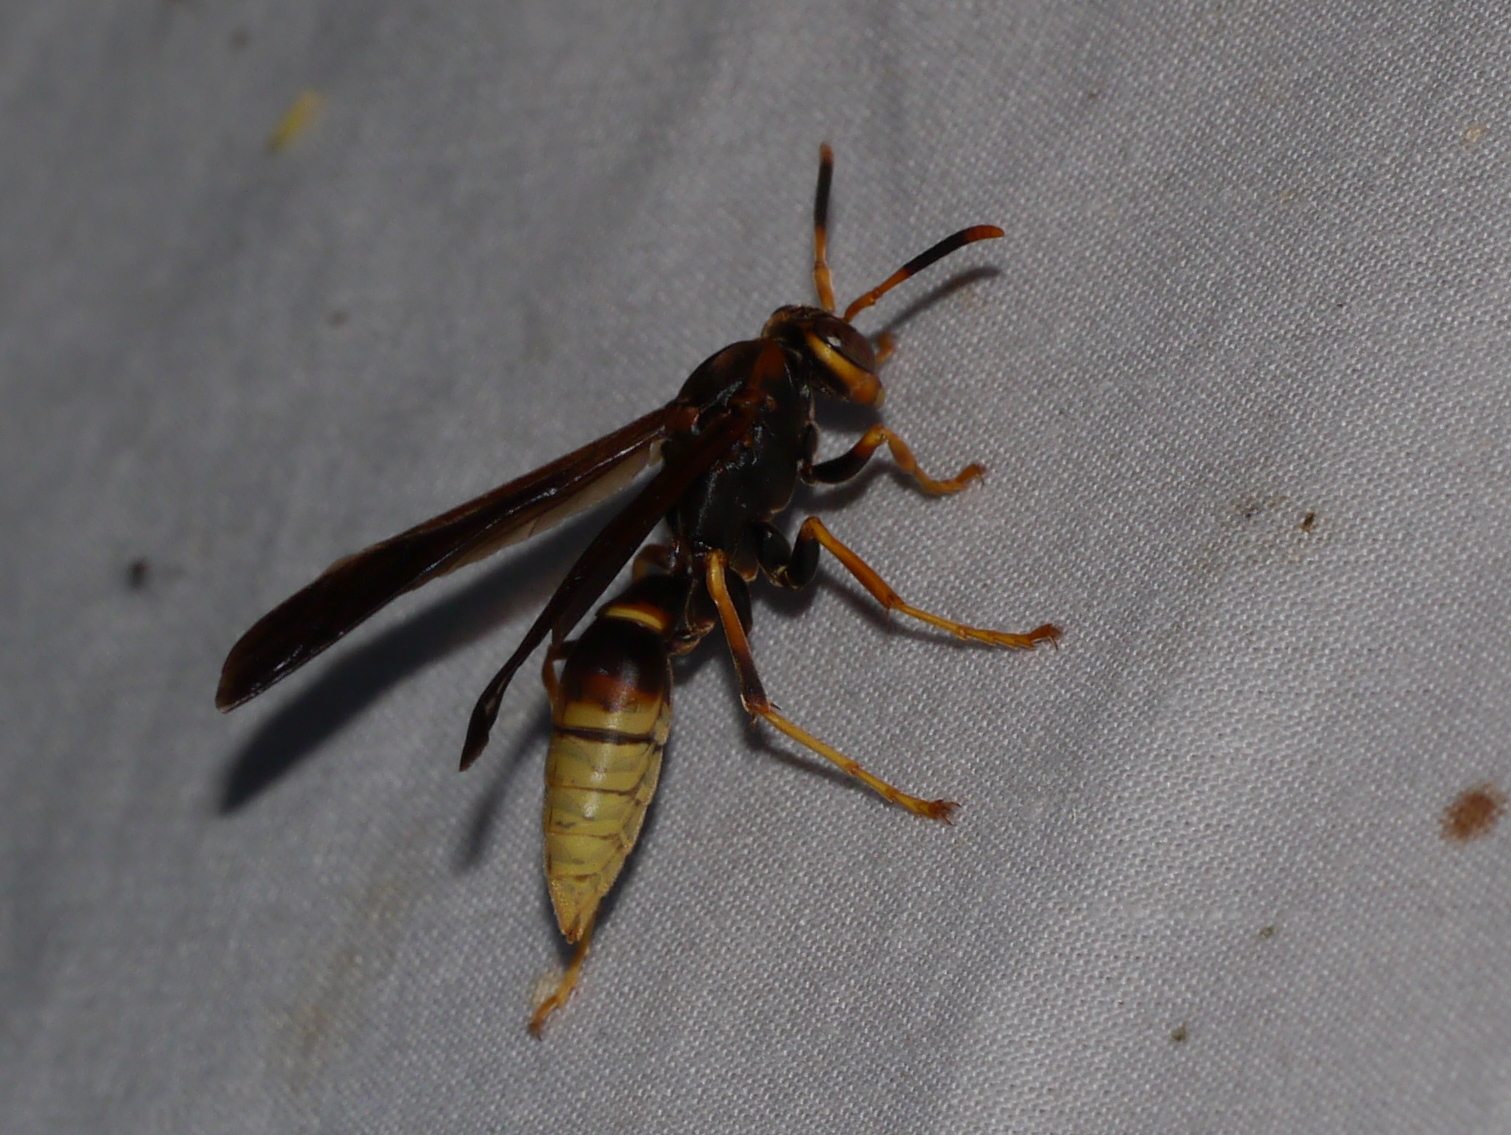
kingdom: Animalia
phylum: Arthropoda
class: Insecta
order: Hymenoptera
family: Eumenidae
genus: Polistes
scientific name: Polistes comanchus
